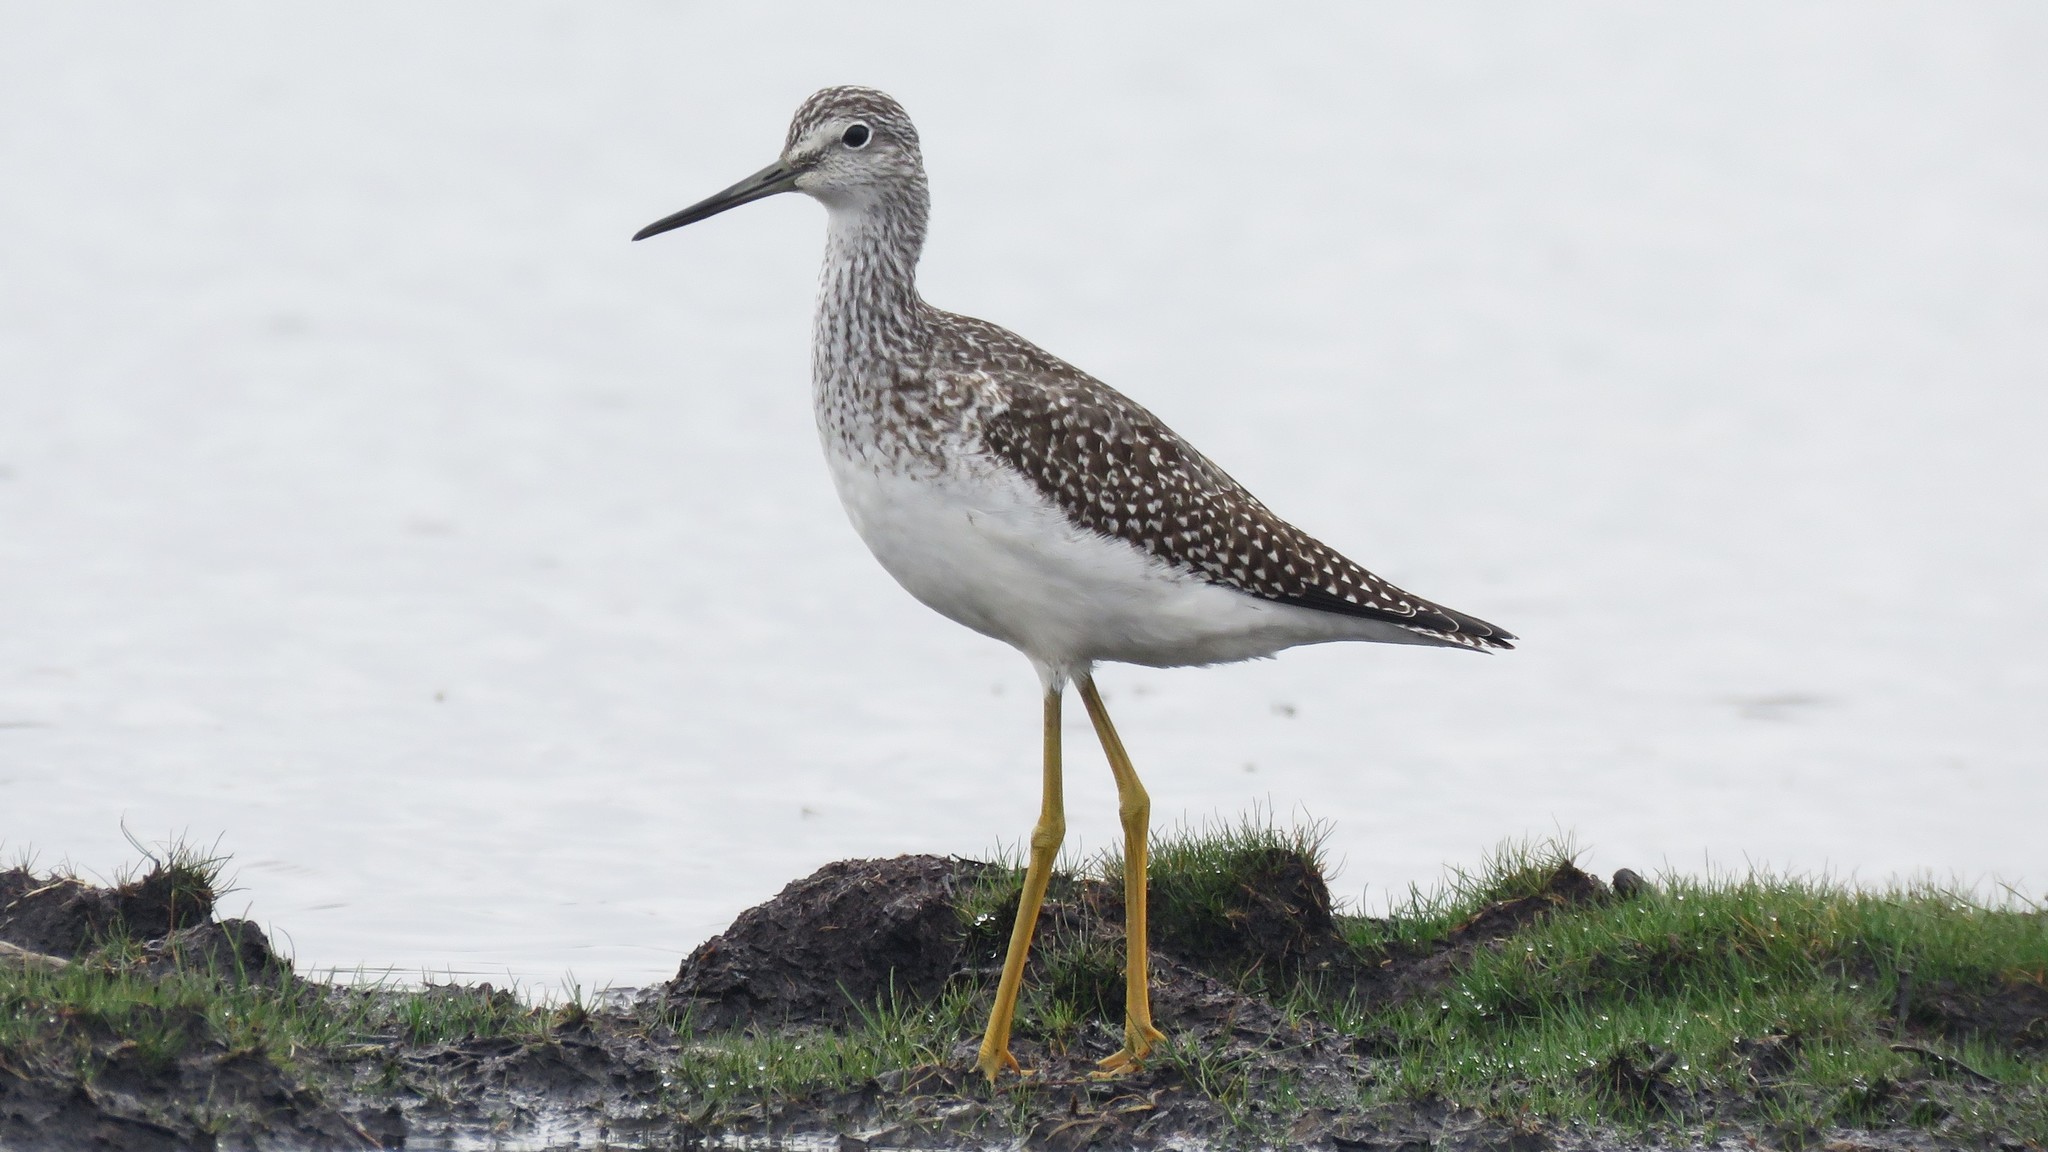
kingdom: Animalia
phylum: Chordata
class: Aves
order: Charadriiformes
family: Scolopacidae
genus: Tringa
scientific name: Tringa melanoleuca
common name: Greater yellowlegs
